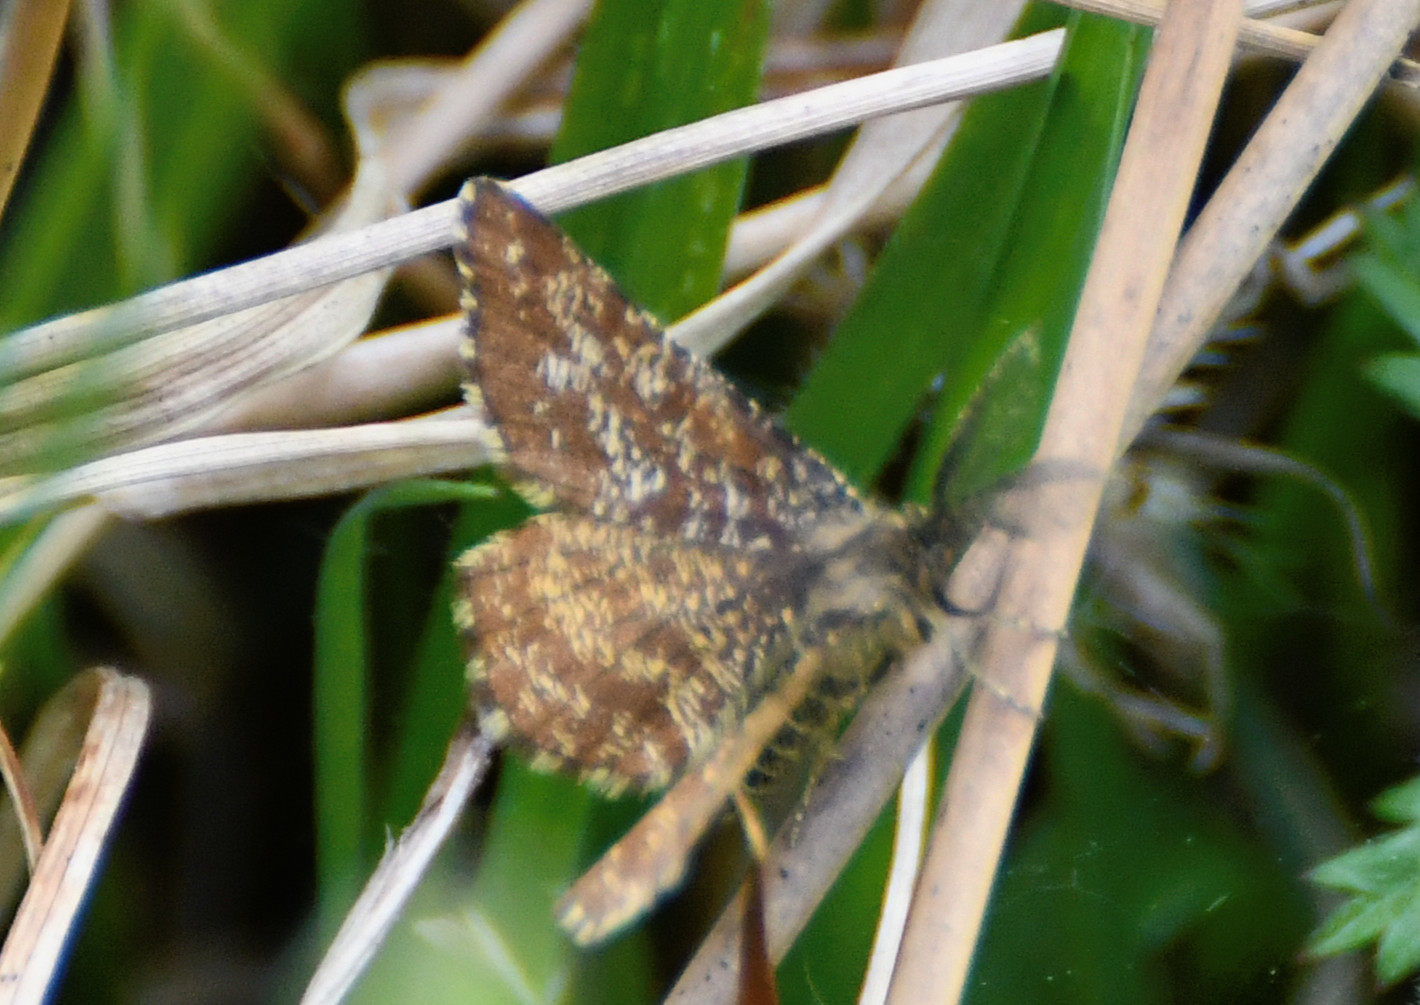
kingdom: Animalia
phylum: Arthropoda
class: Insecta
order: Lepidoptera
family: Geometridae
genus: Ematurga
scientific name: Ematurga atomaria
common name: Common heath
